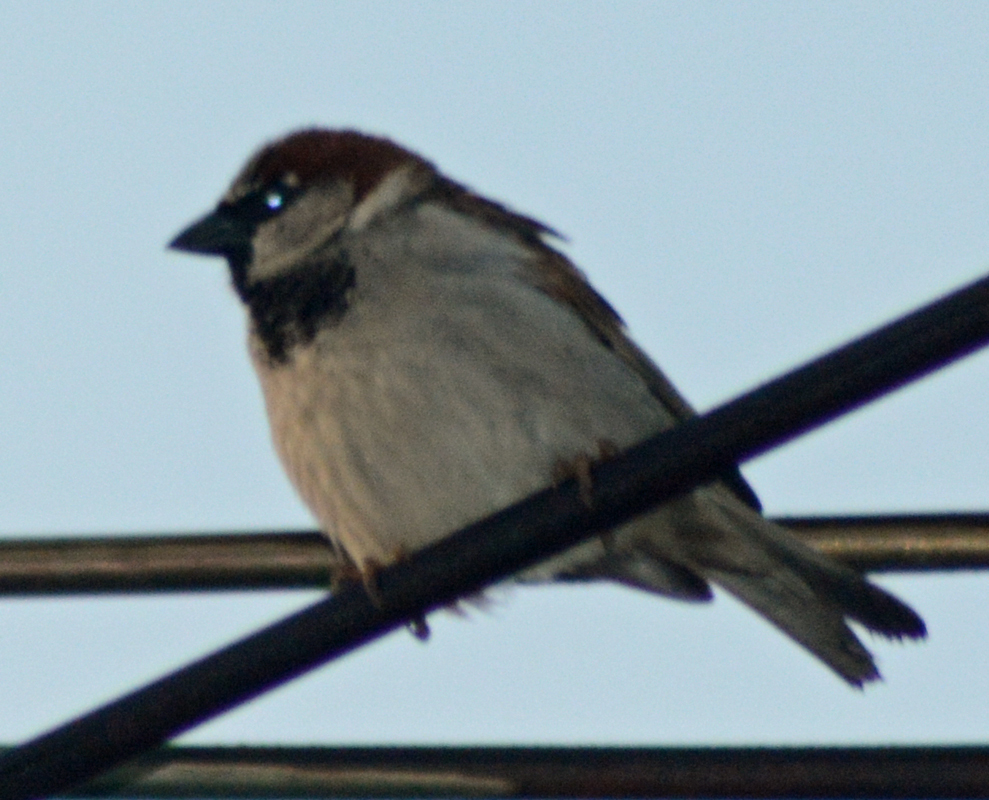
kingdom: Animalia
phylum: Chordata
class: Aves
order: Passeriformes
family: Passeridae
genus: Passer
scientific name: Passer domesticus
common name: House sparrow
